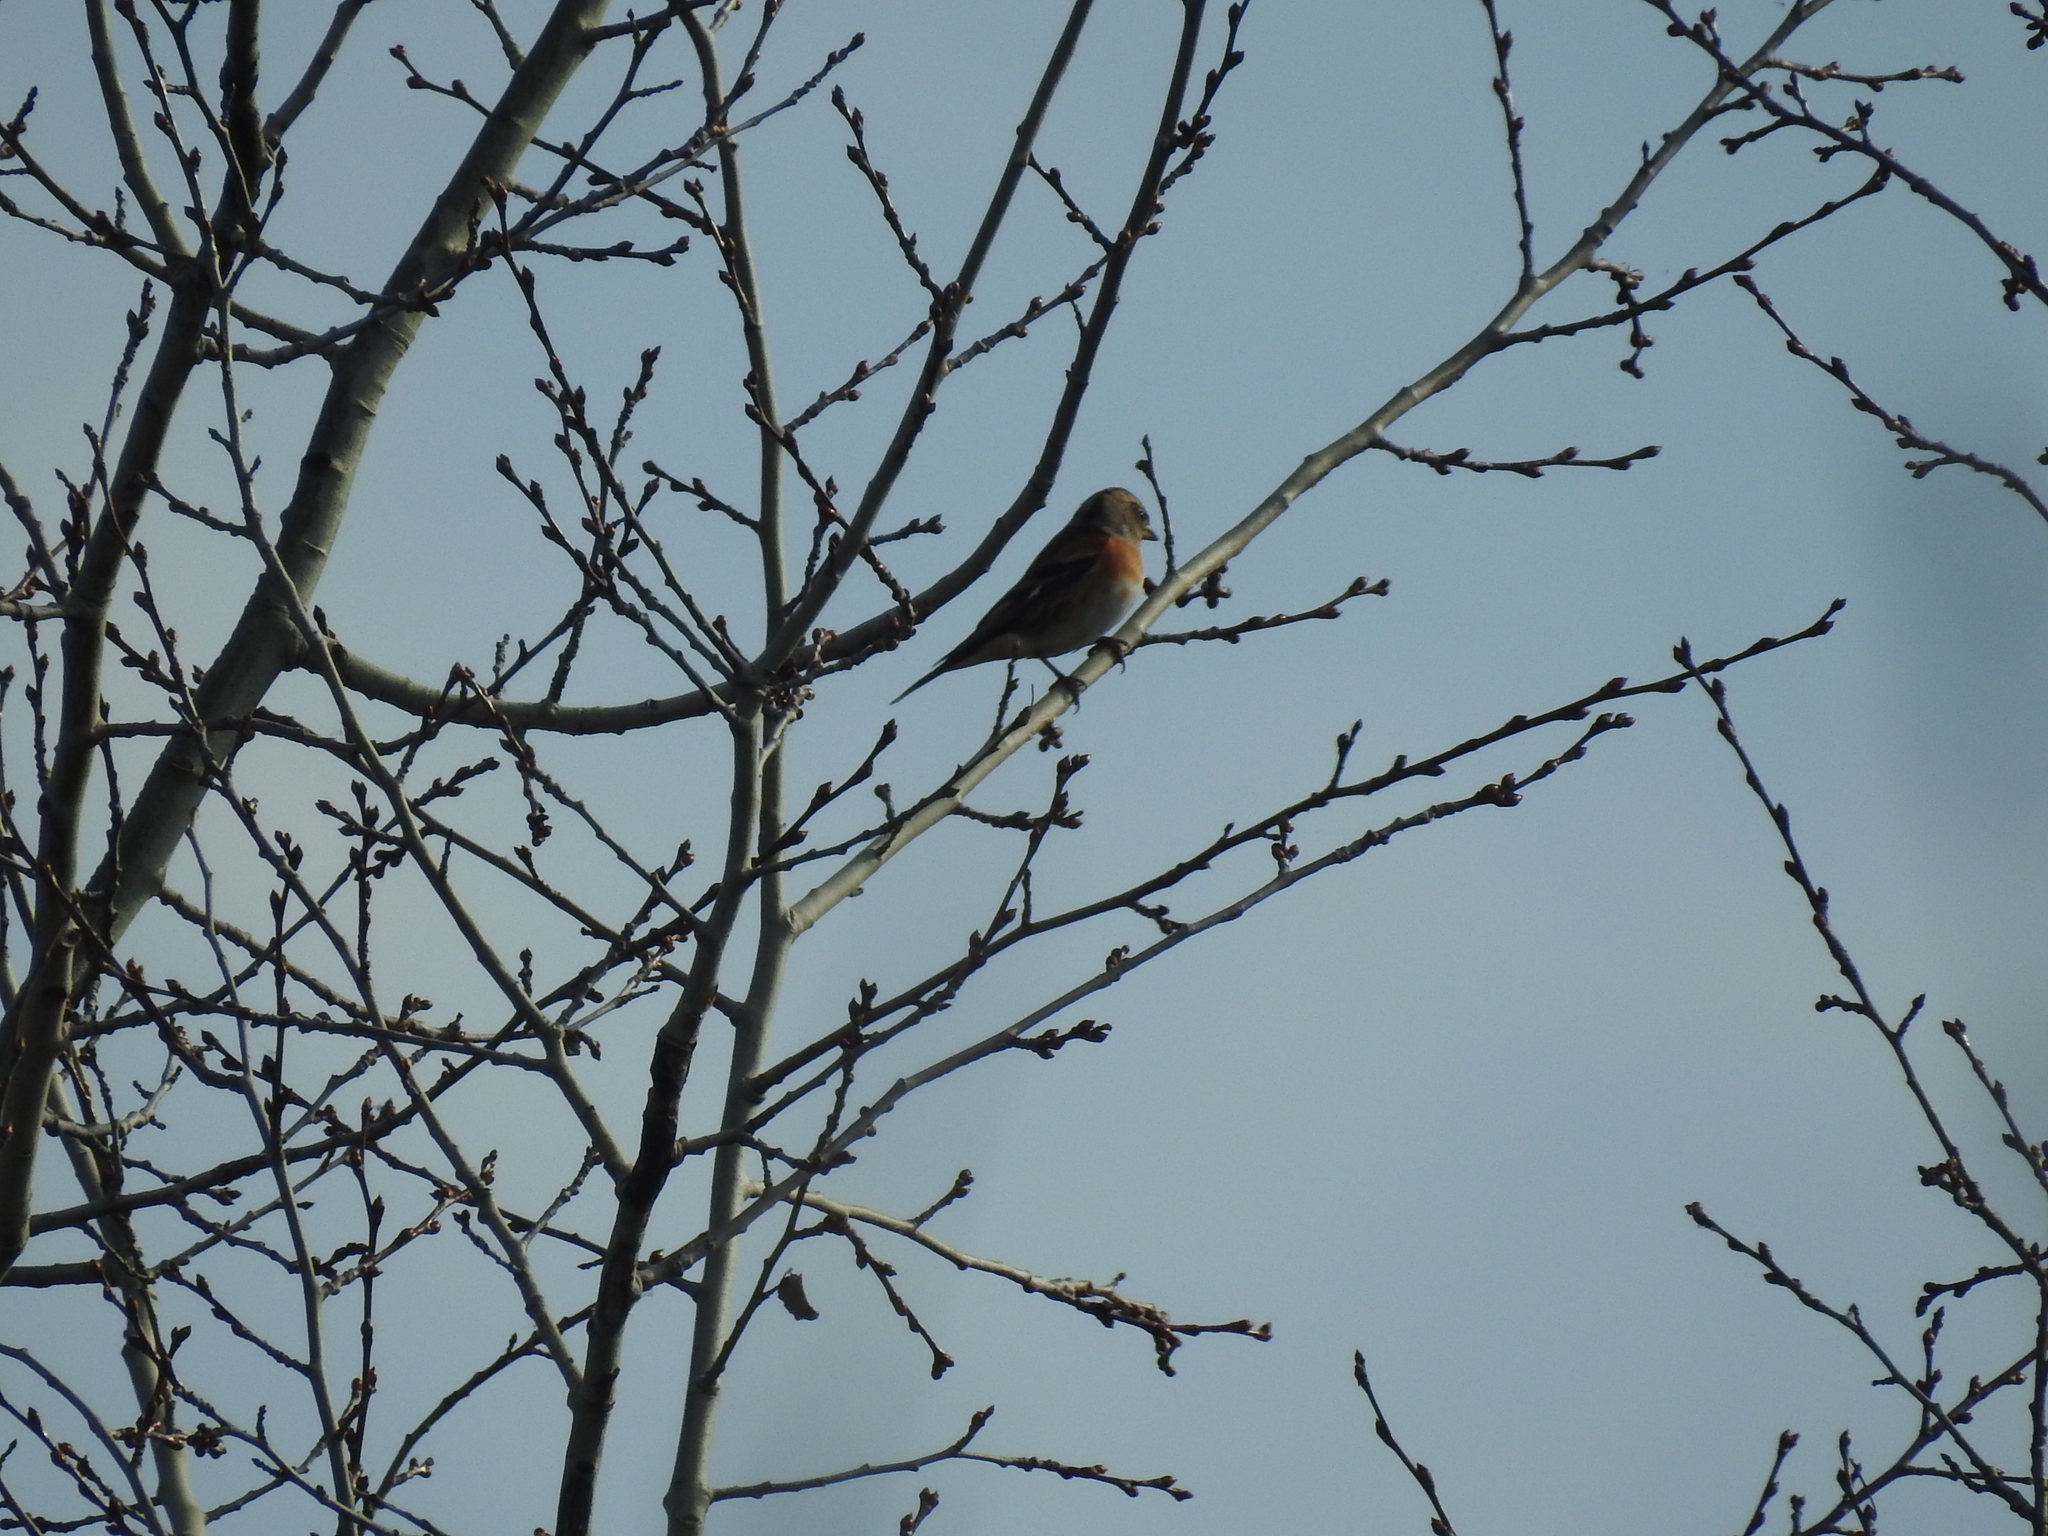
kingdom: Animalia
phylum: Chordata
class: Aves
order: Passeriformes
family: Fringillidae
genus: Fringilla
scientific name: Fringilla montifringilla
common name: Brambling
